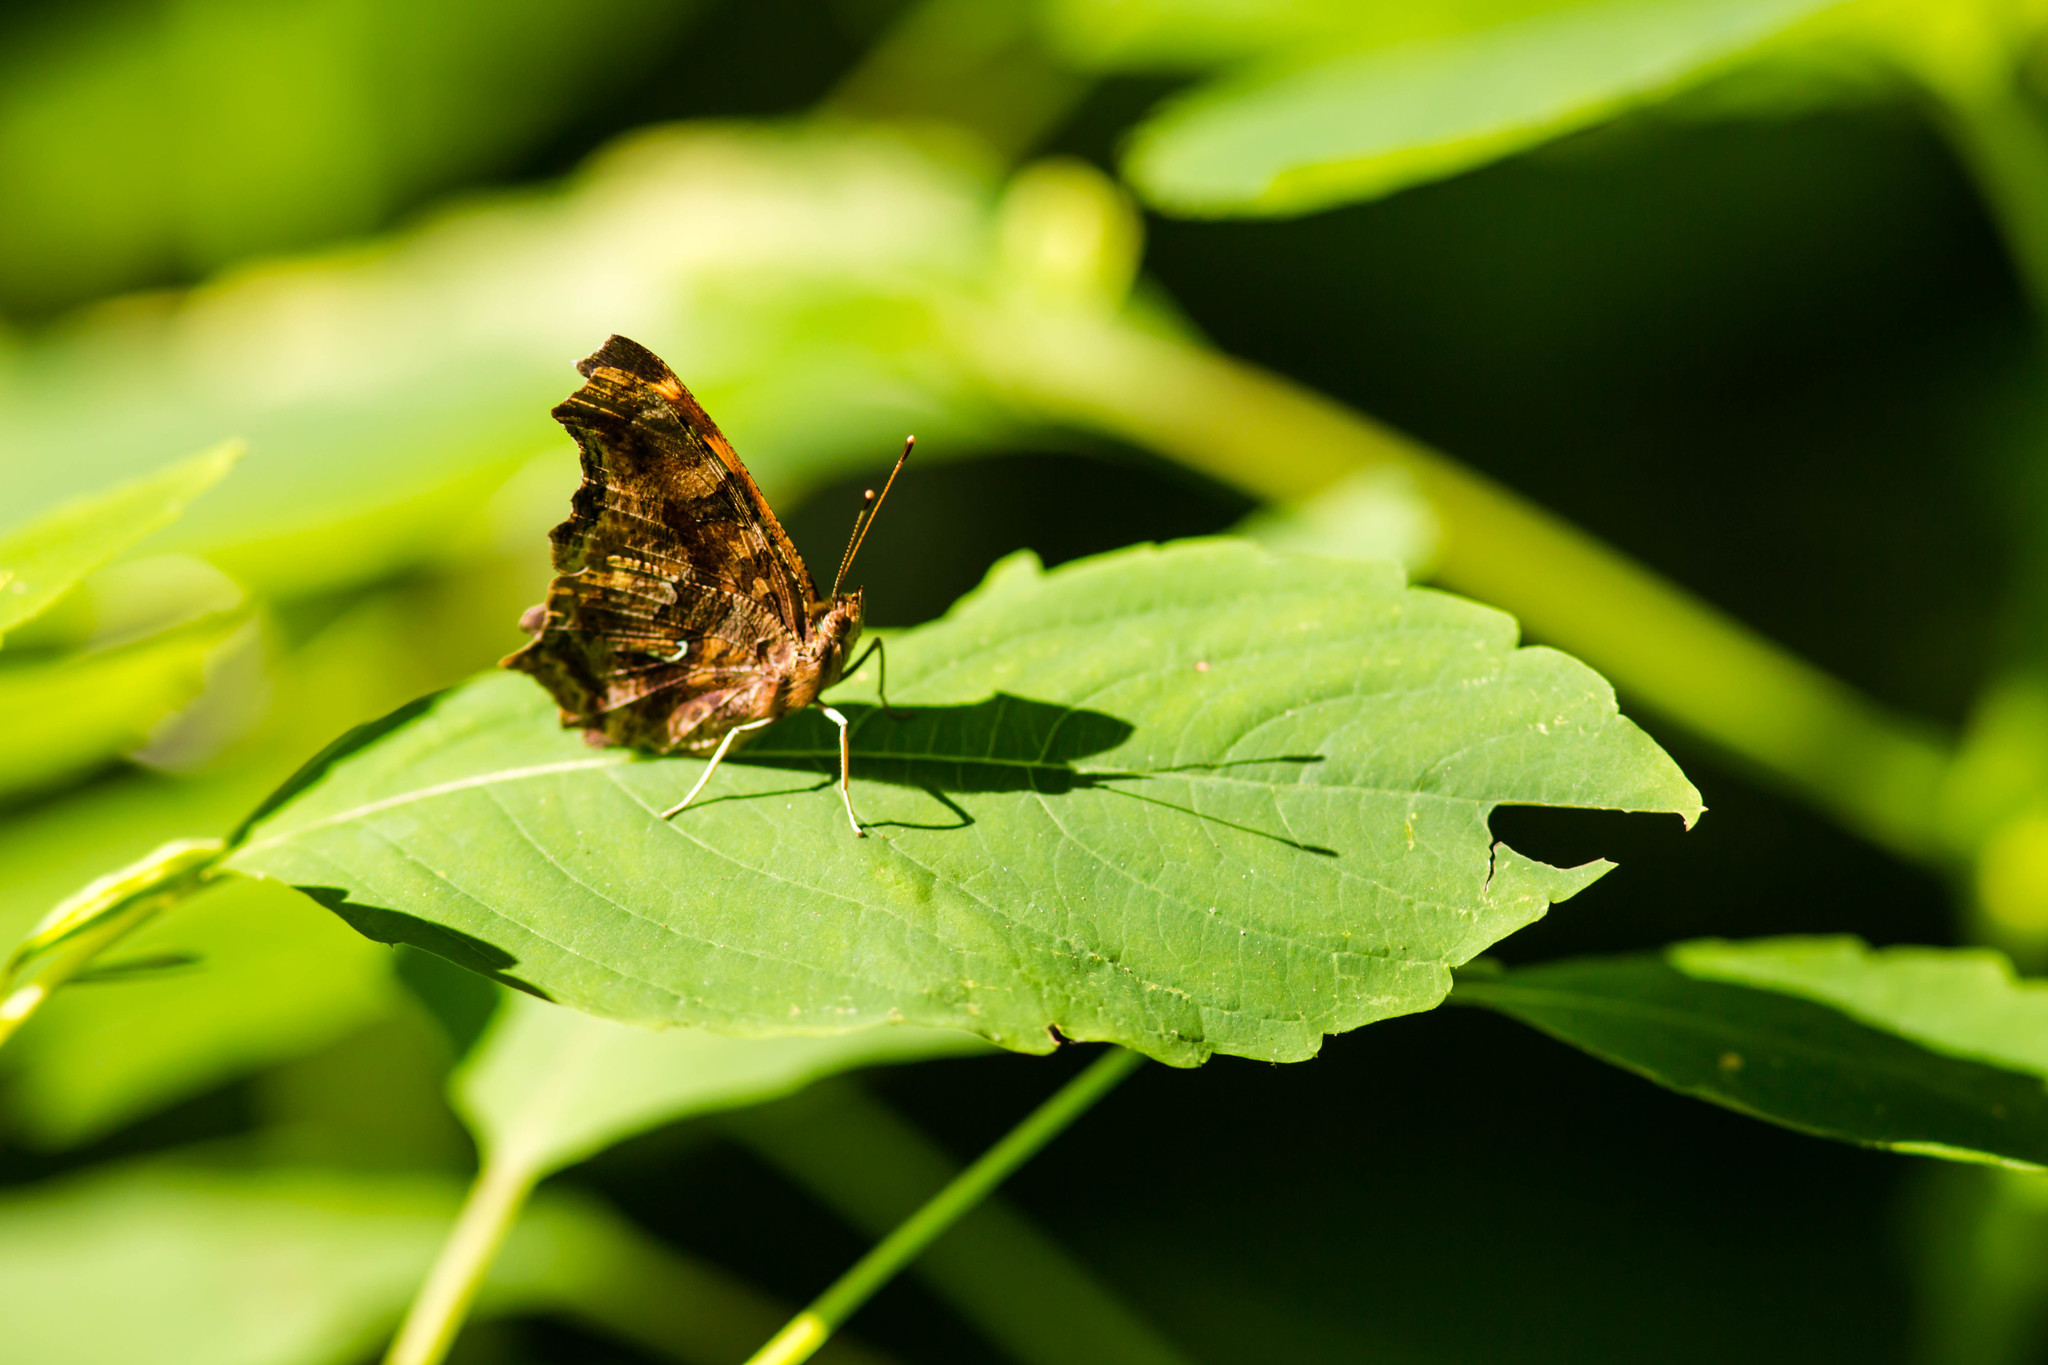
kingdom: Animalia
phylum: Arthropoda
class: Insecta
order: Lepidoptera
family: Nymphalidae
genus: Polygonia
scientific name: Polygonia interrogationis
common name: Question mark
